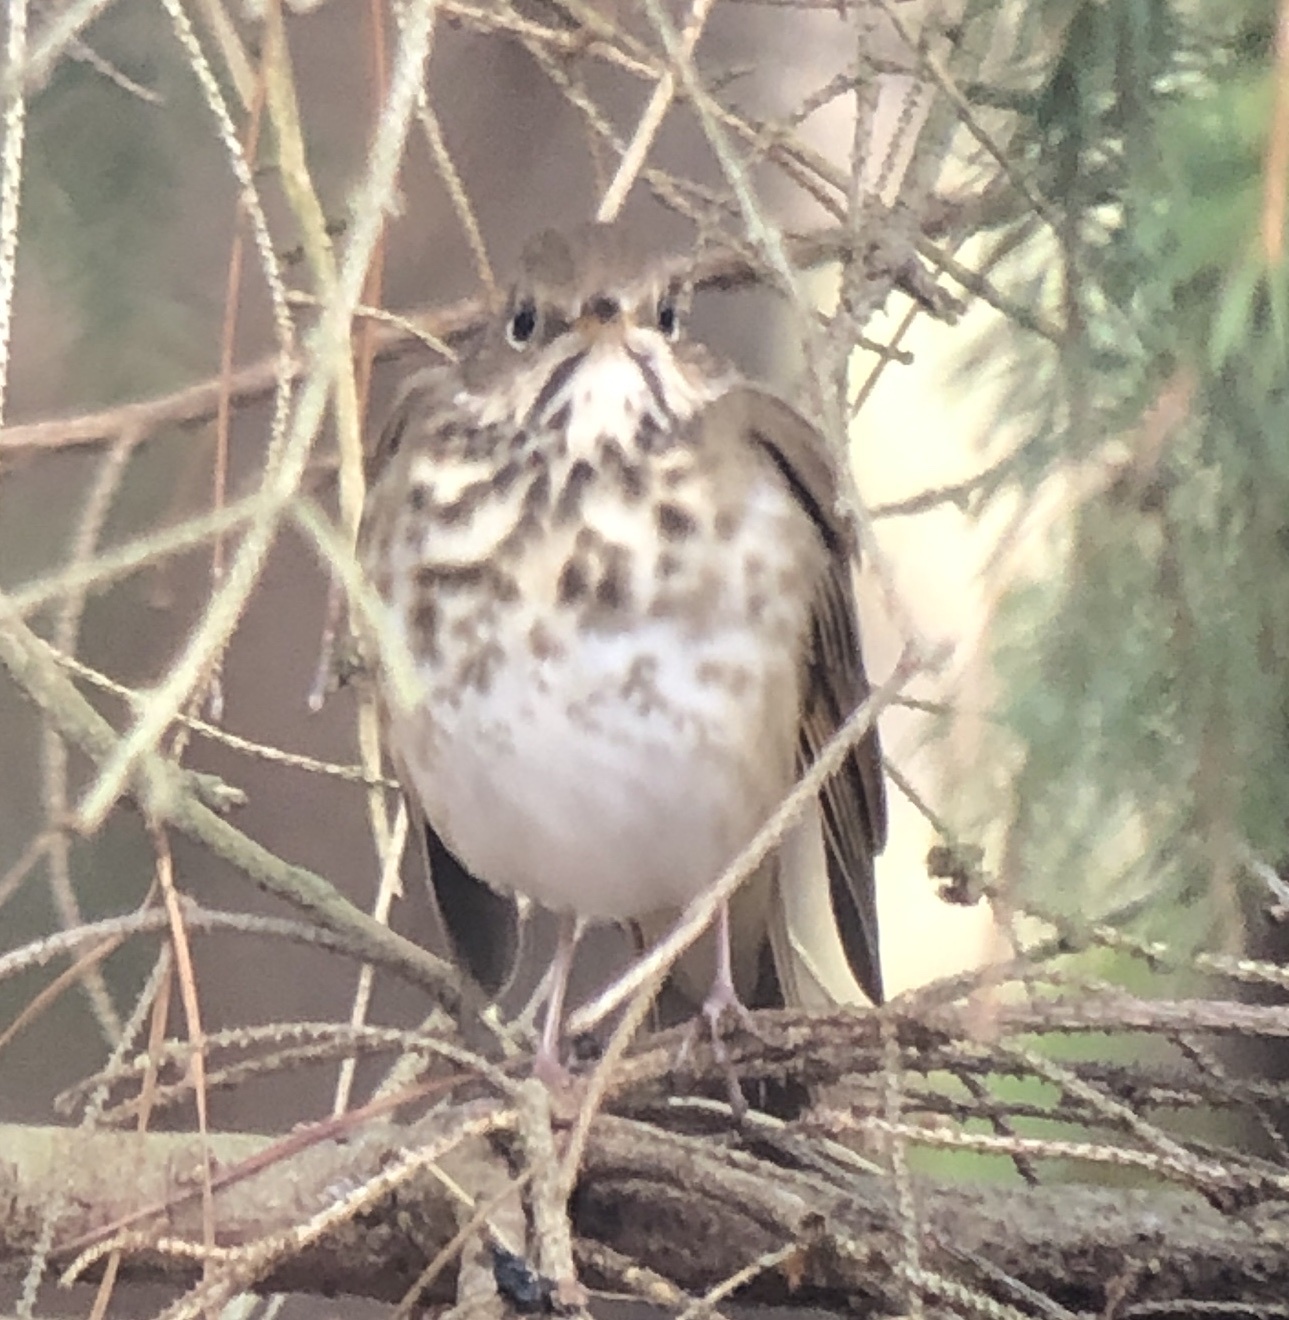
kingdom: Animalia
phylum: Chordata
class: Aves
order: Passeriformes
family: Turdidae
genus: Catharus
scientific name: Catharus guttatus
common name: Hermit thrush
